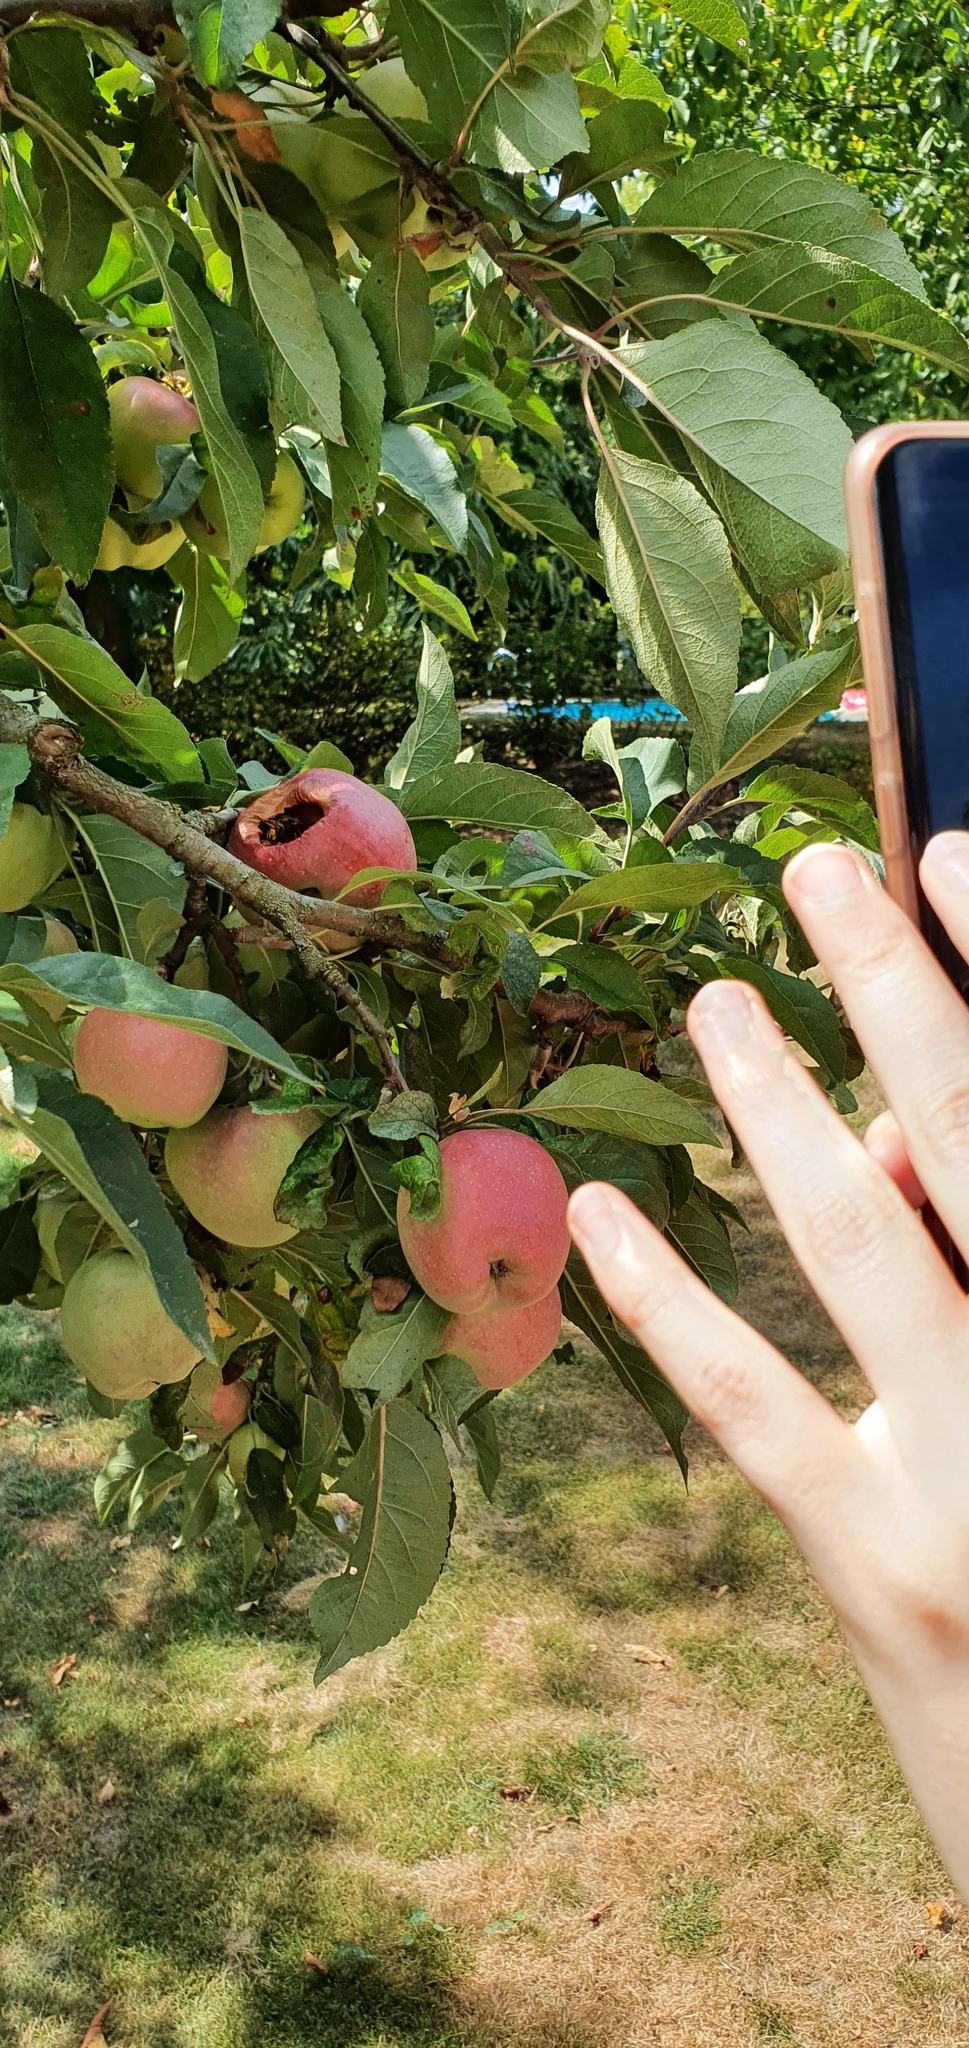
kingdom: Animalia
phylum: Arthropoda
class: Insecta
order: Hymenoptera
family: Vespidae
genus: Vespa
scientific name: Vespa crabro
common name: Hornet
